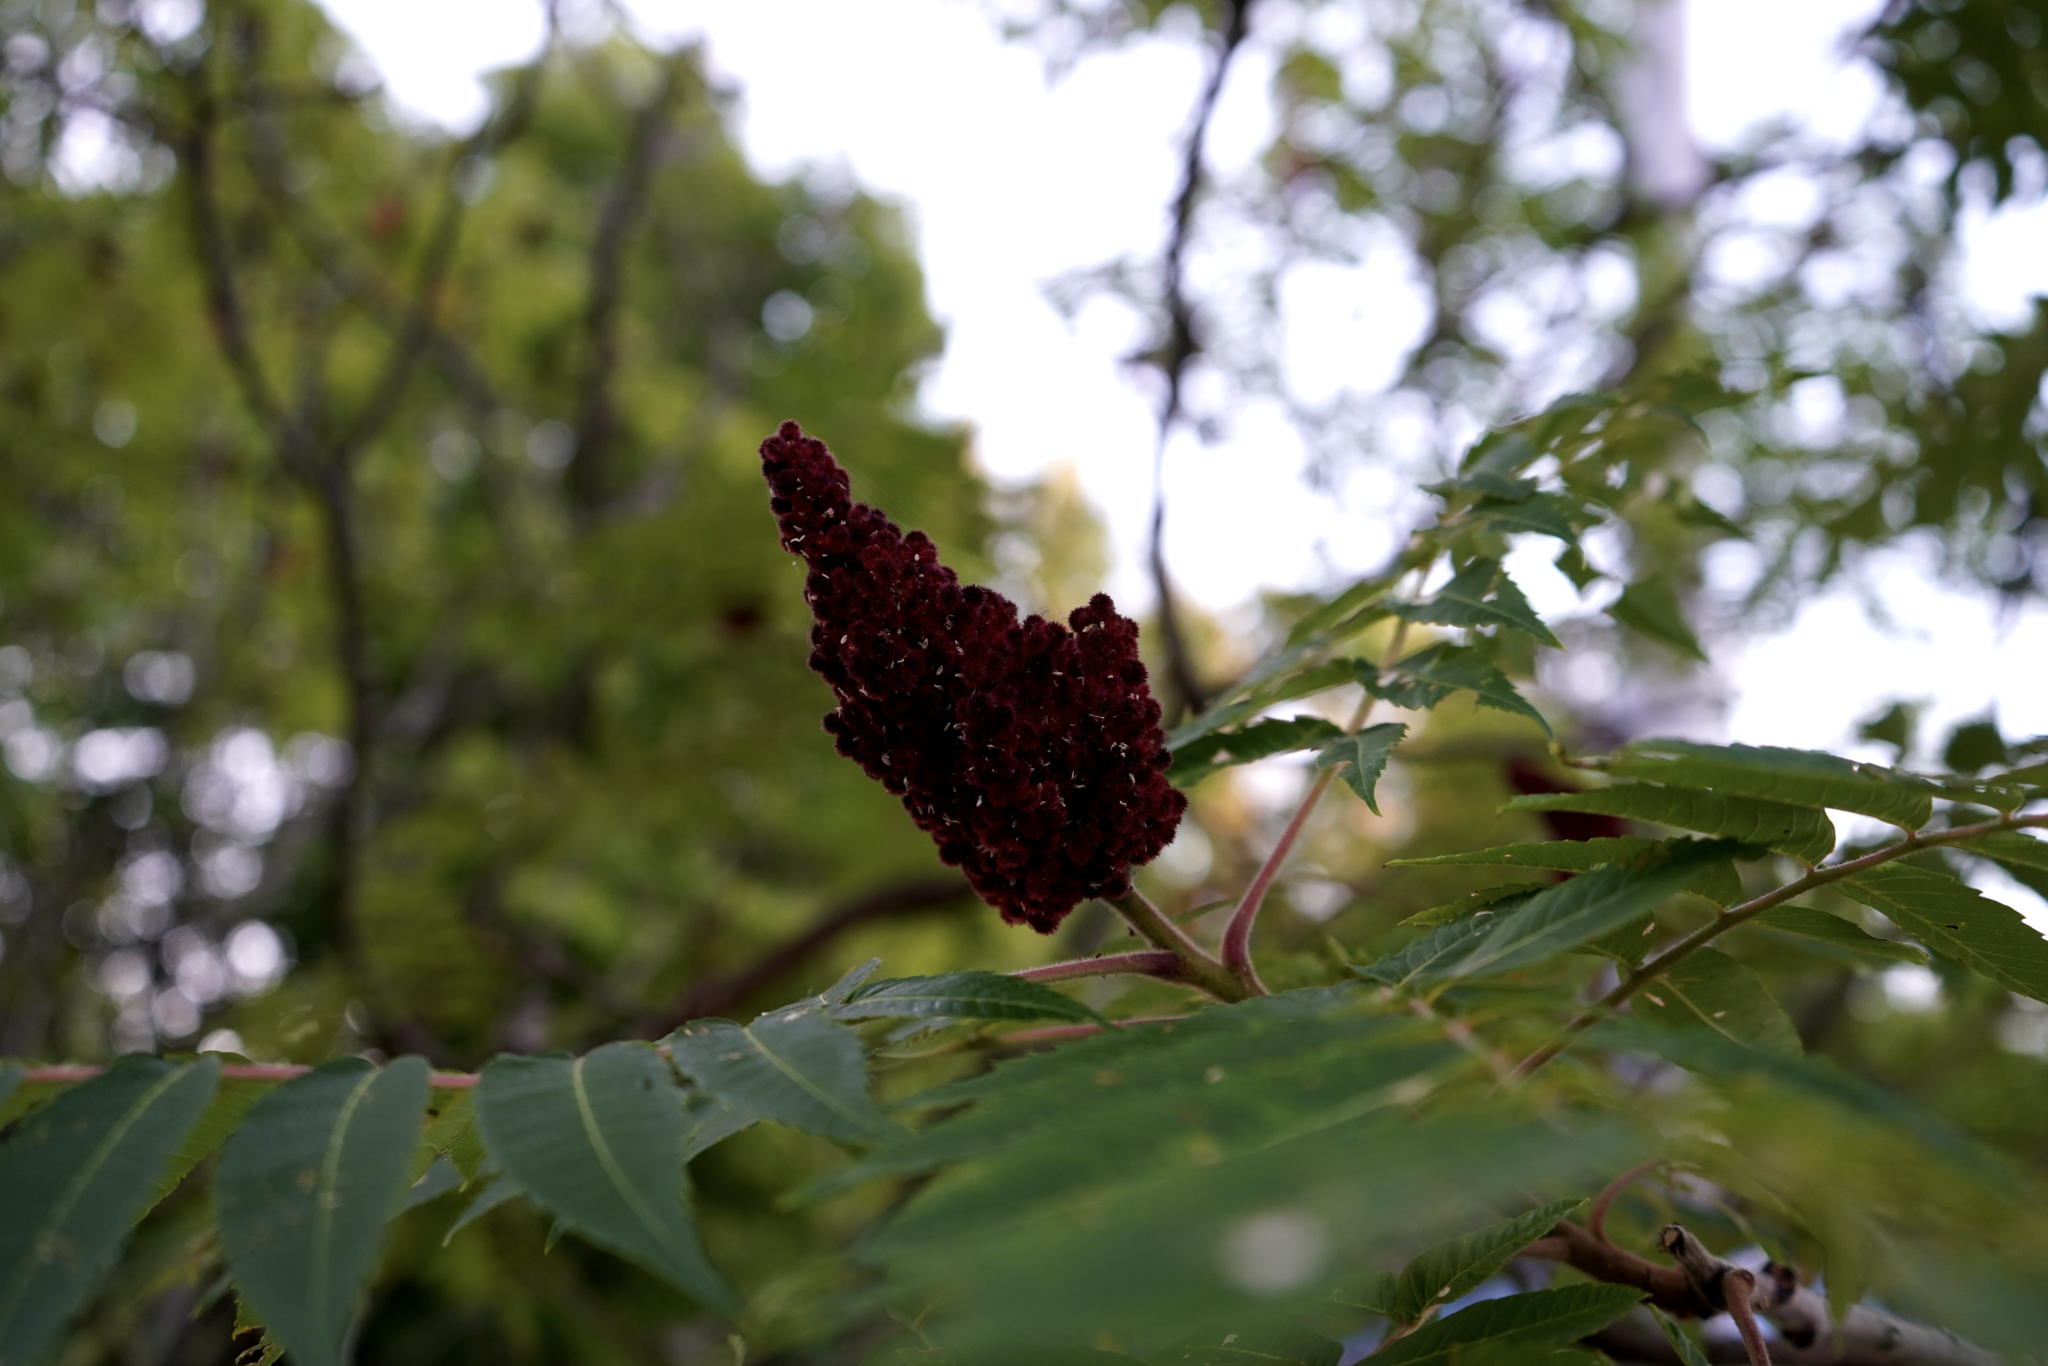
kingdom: Plantae
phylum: Tracheophyta
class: Magnoliopsida
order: Sapindales
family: Anacardiaceae
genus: Rhus
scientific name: Rhus typhina
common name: Staghorn sumac
